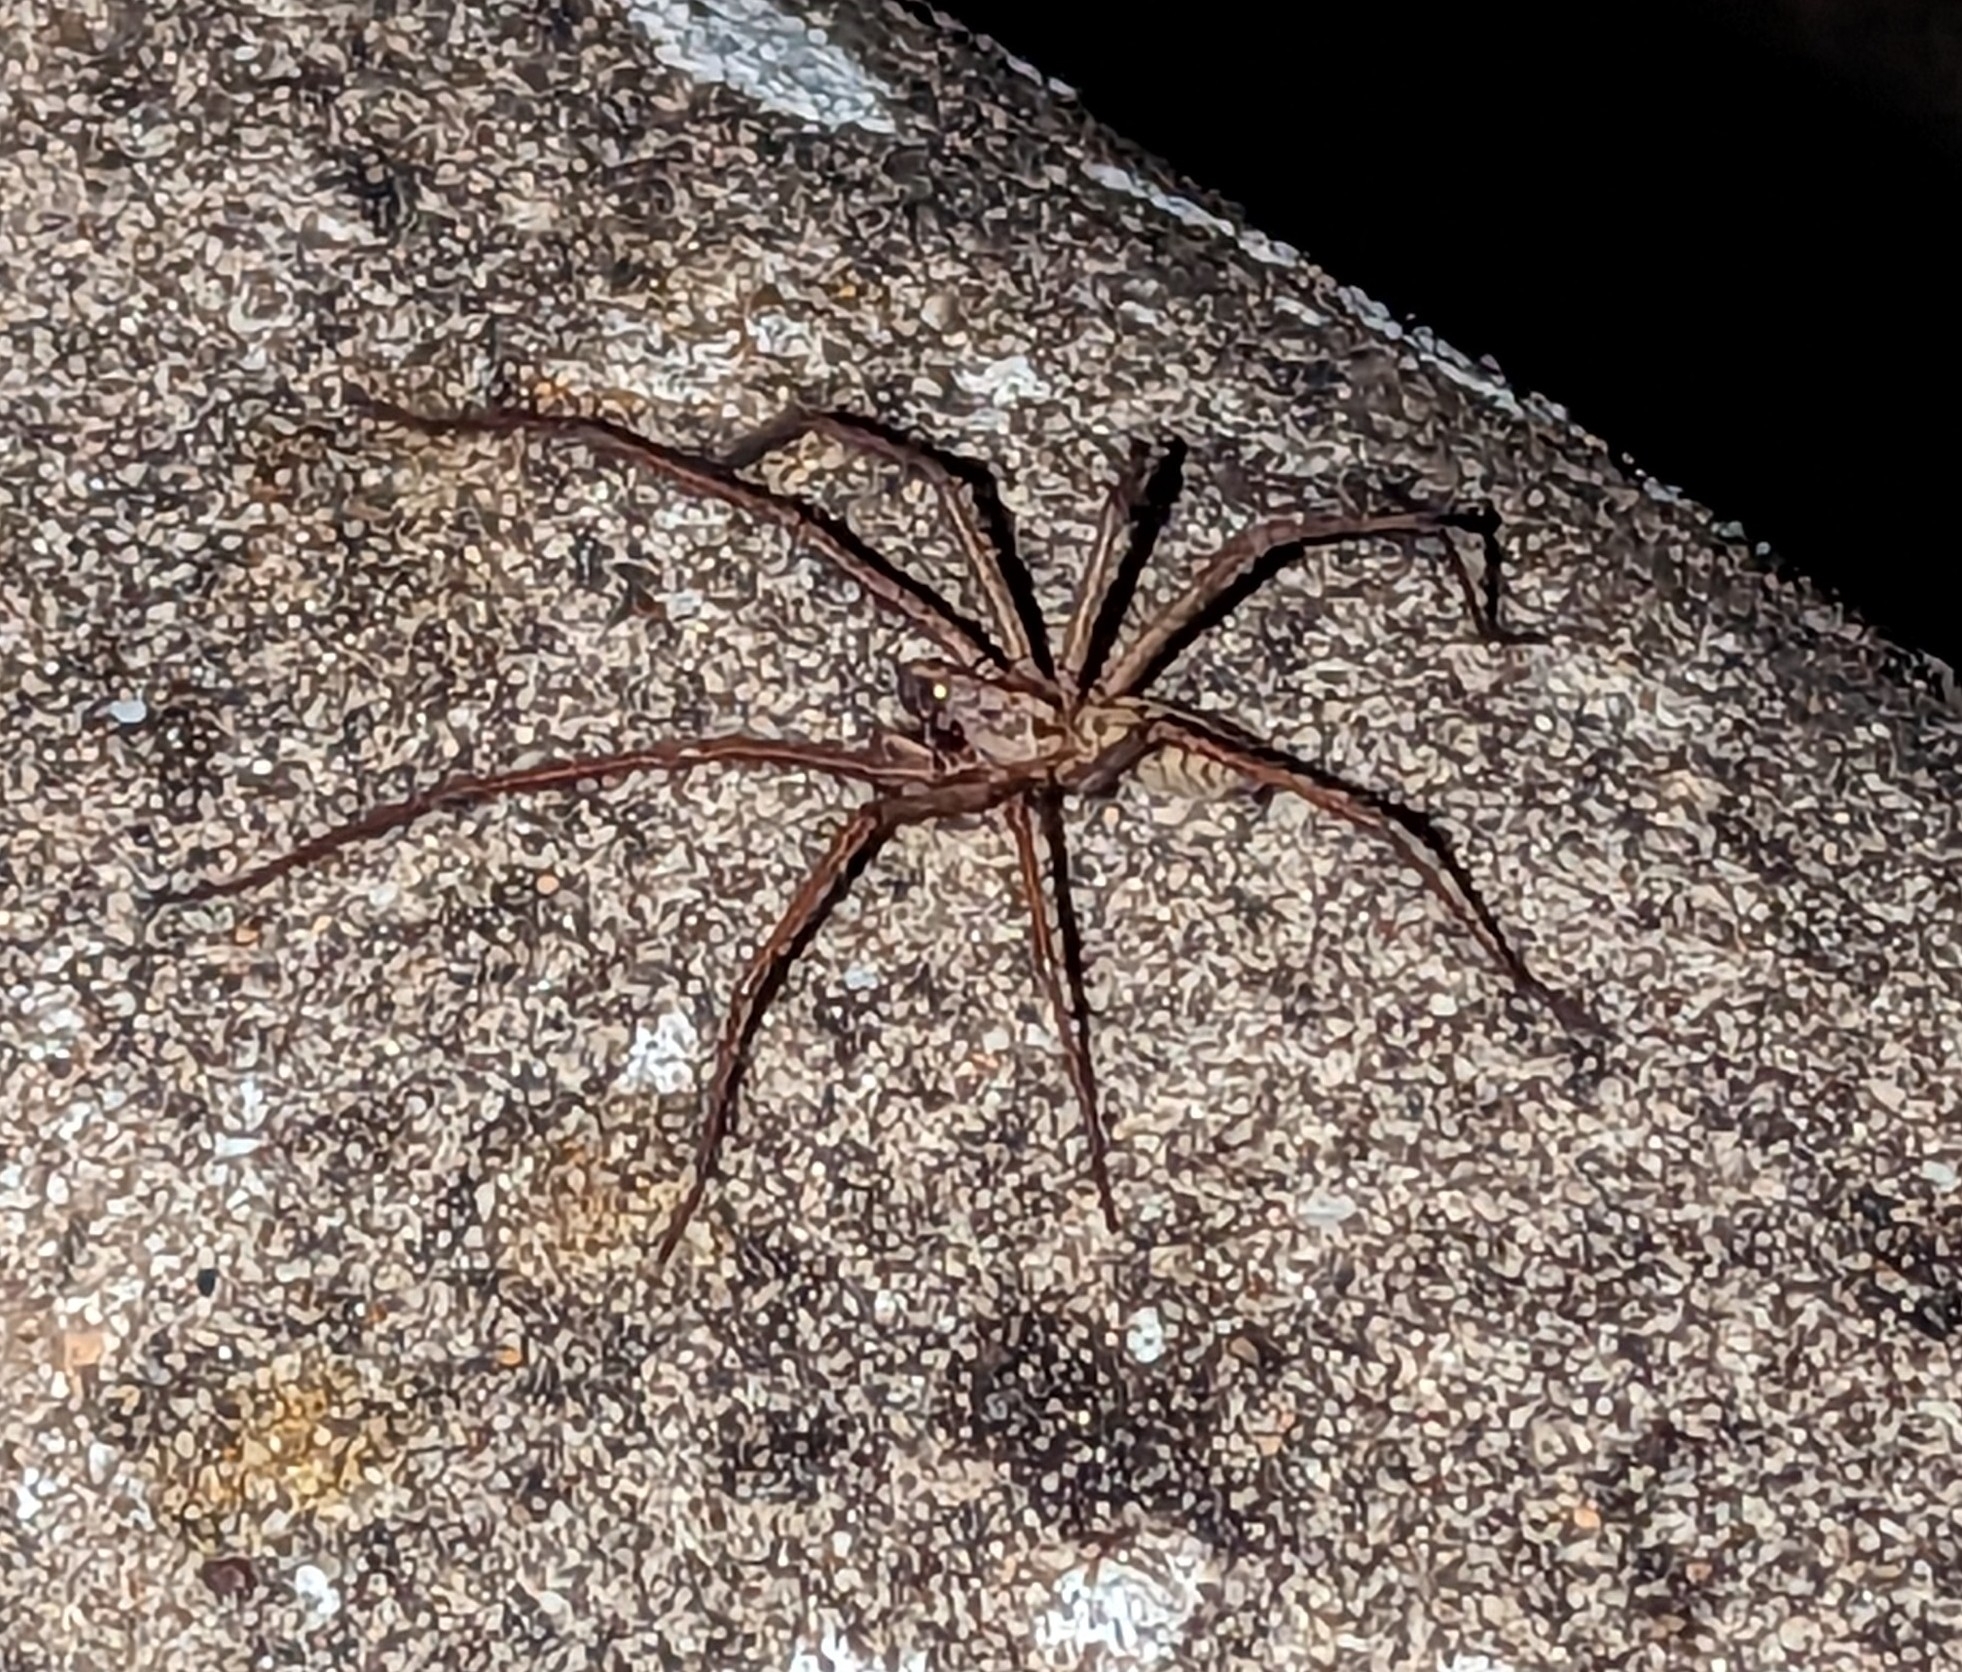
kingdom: Animalia
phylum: Arthropoda
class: Arachnida
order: Araneae
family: Agelenidae
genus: Eratigena
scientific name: Eratigena duellica
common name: Giant house spider
